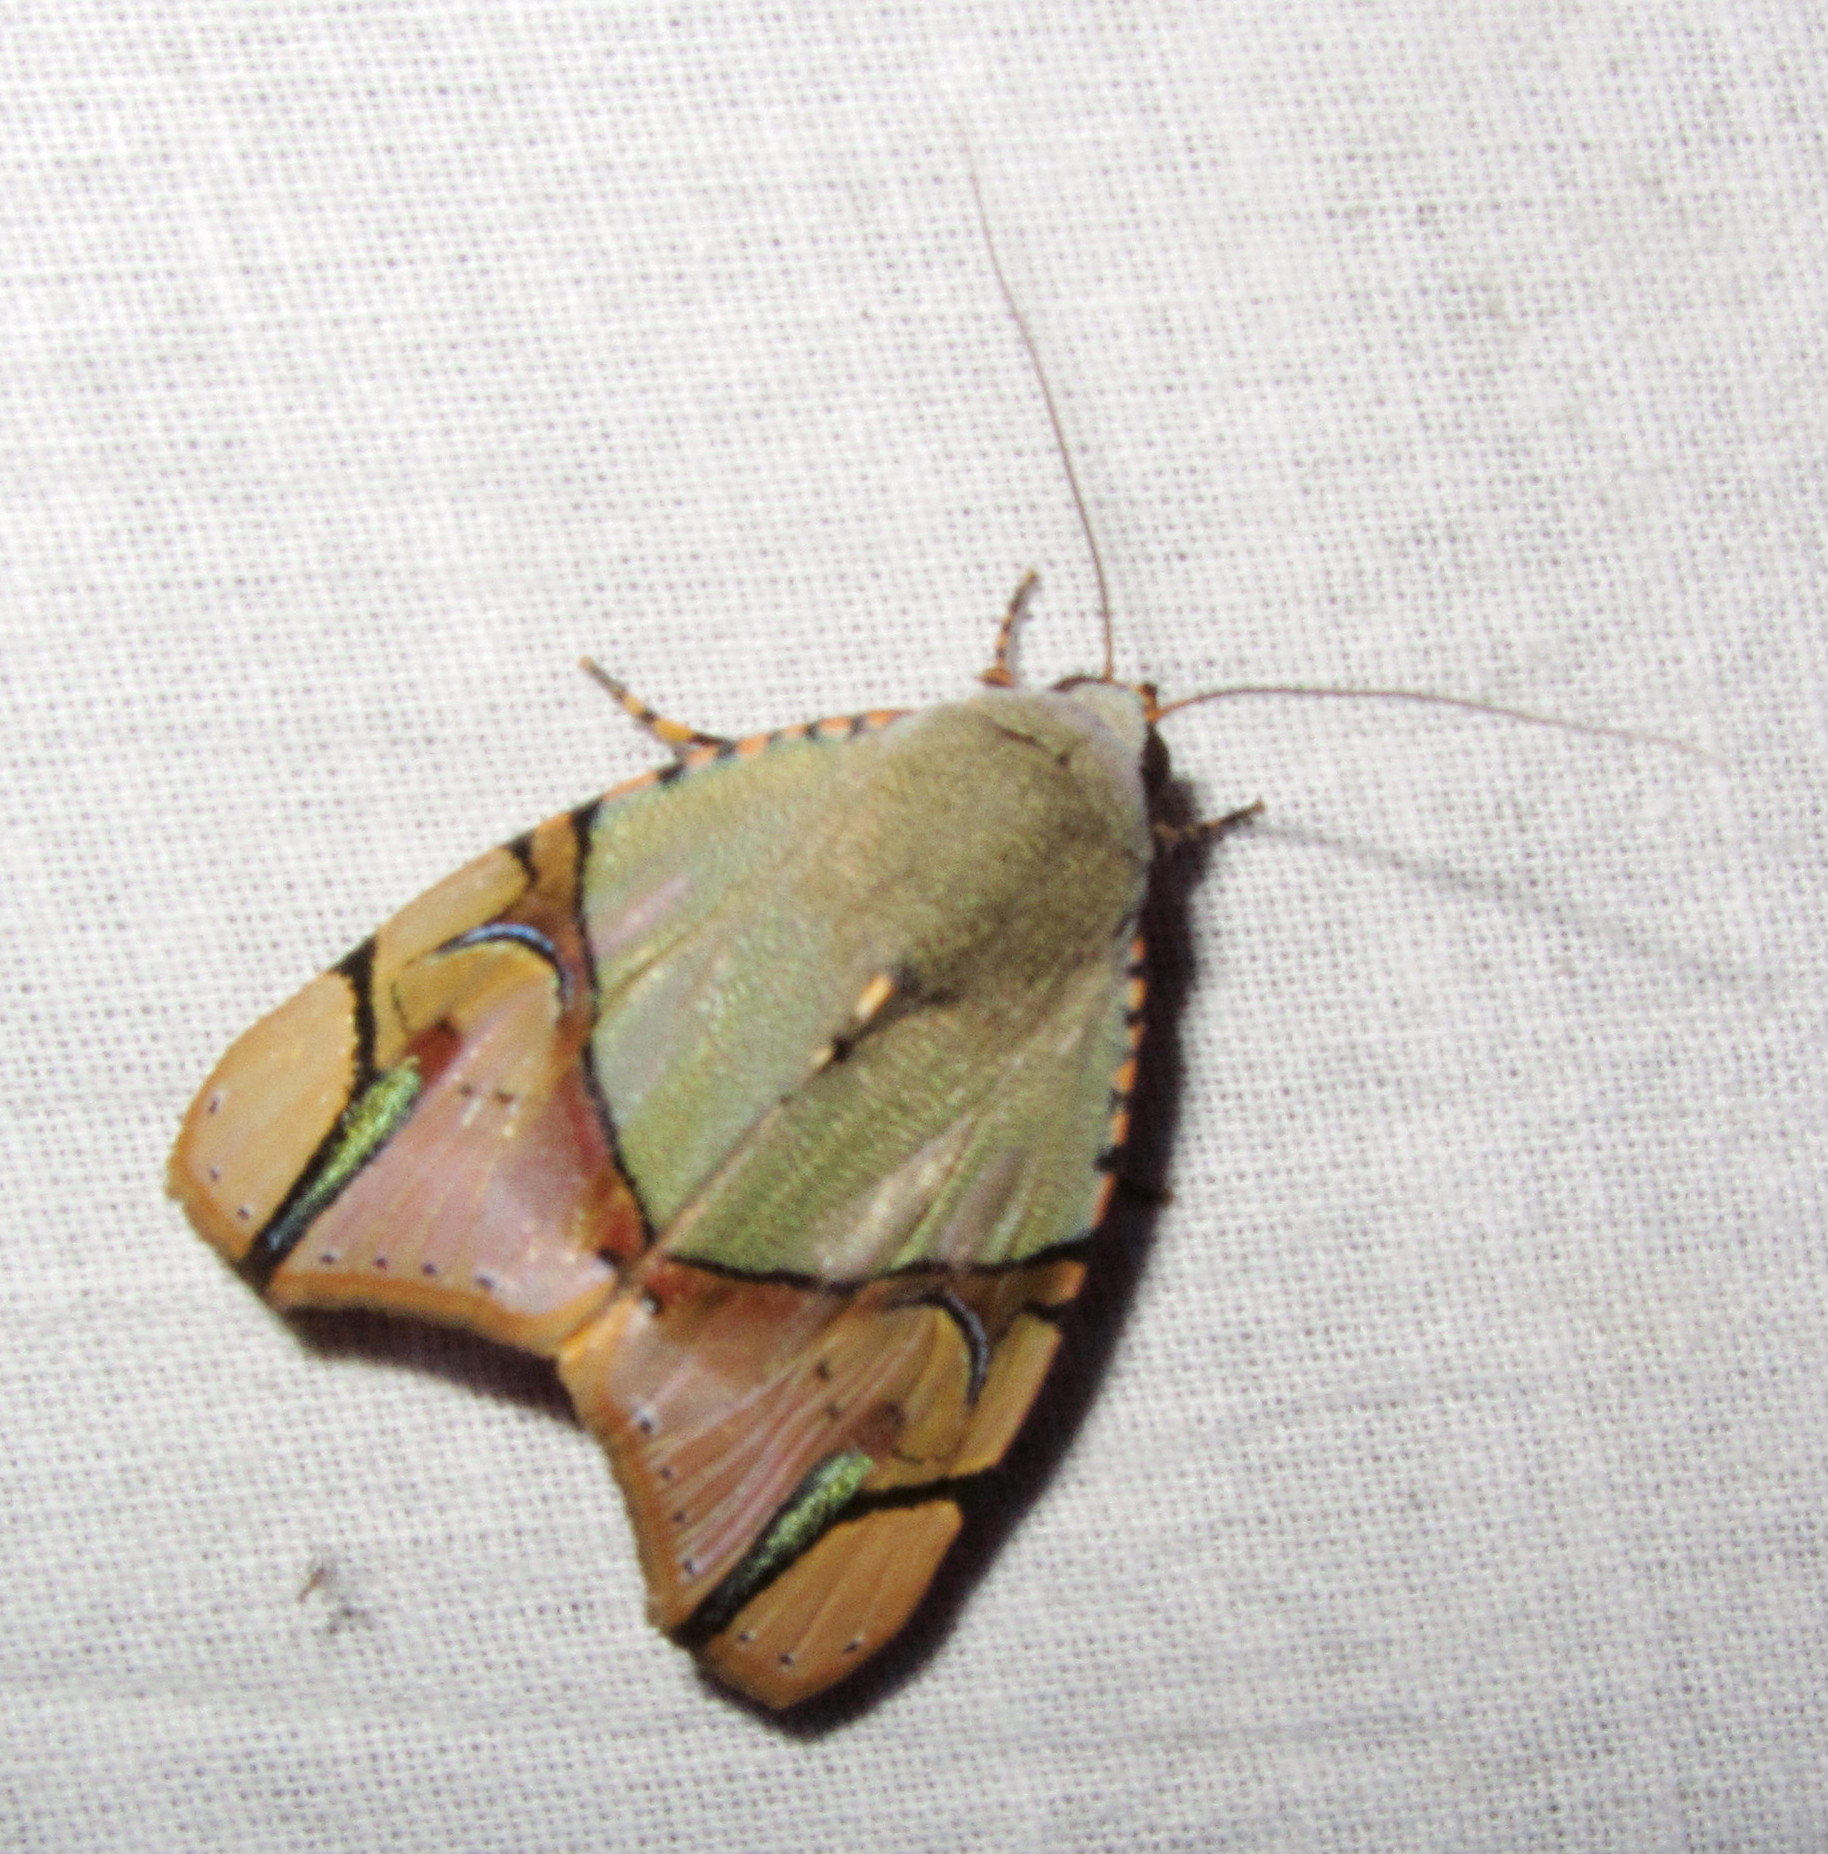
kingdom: Animalia
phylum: Arthropoda
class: Insecta
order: Lepidoptera
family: Erebidae
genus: Ramadasa
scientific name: Ramadasa pavo
